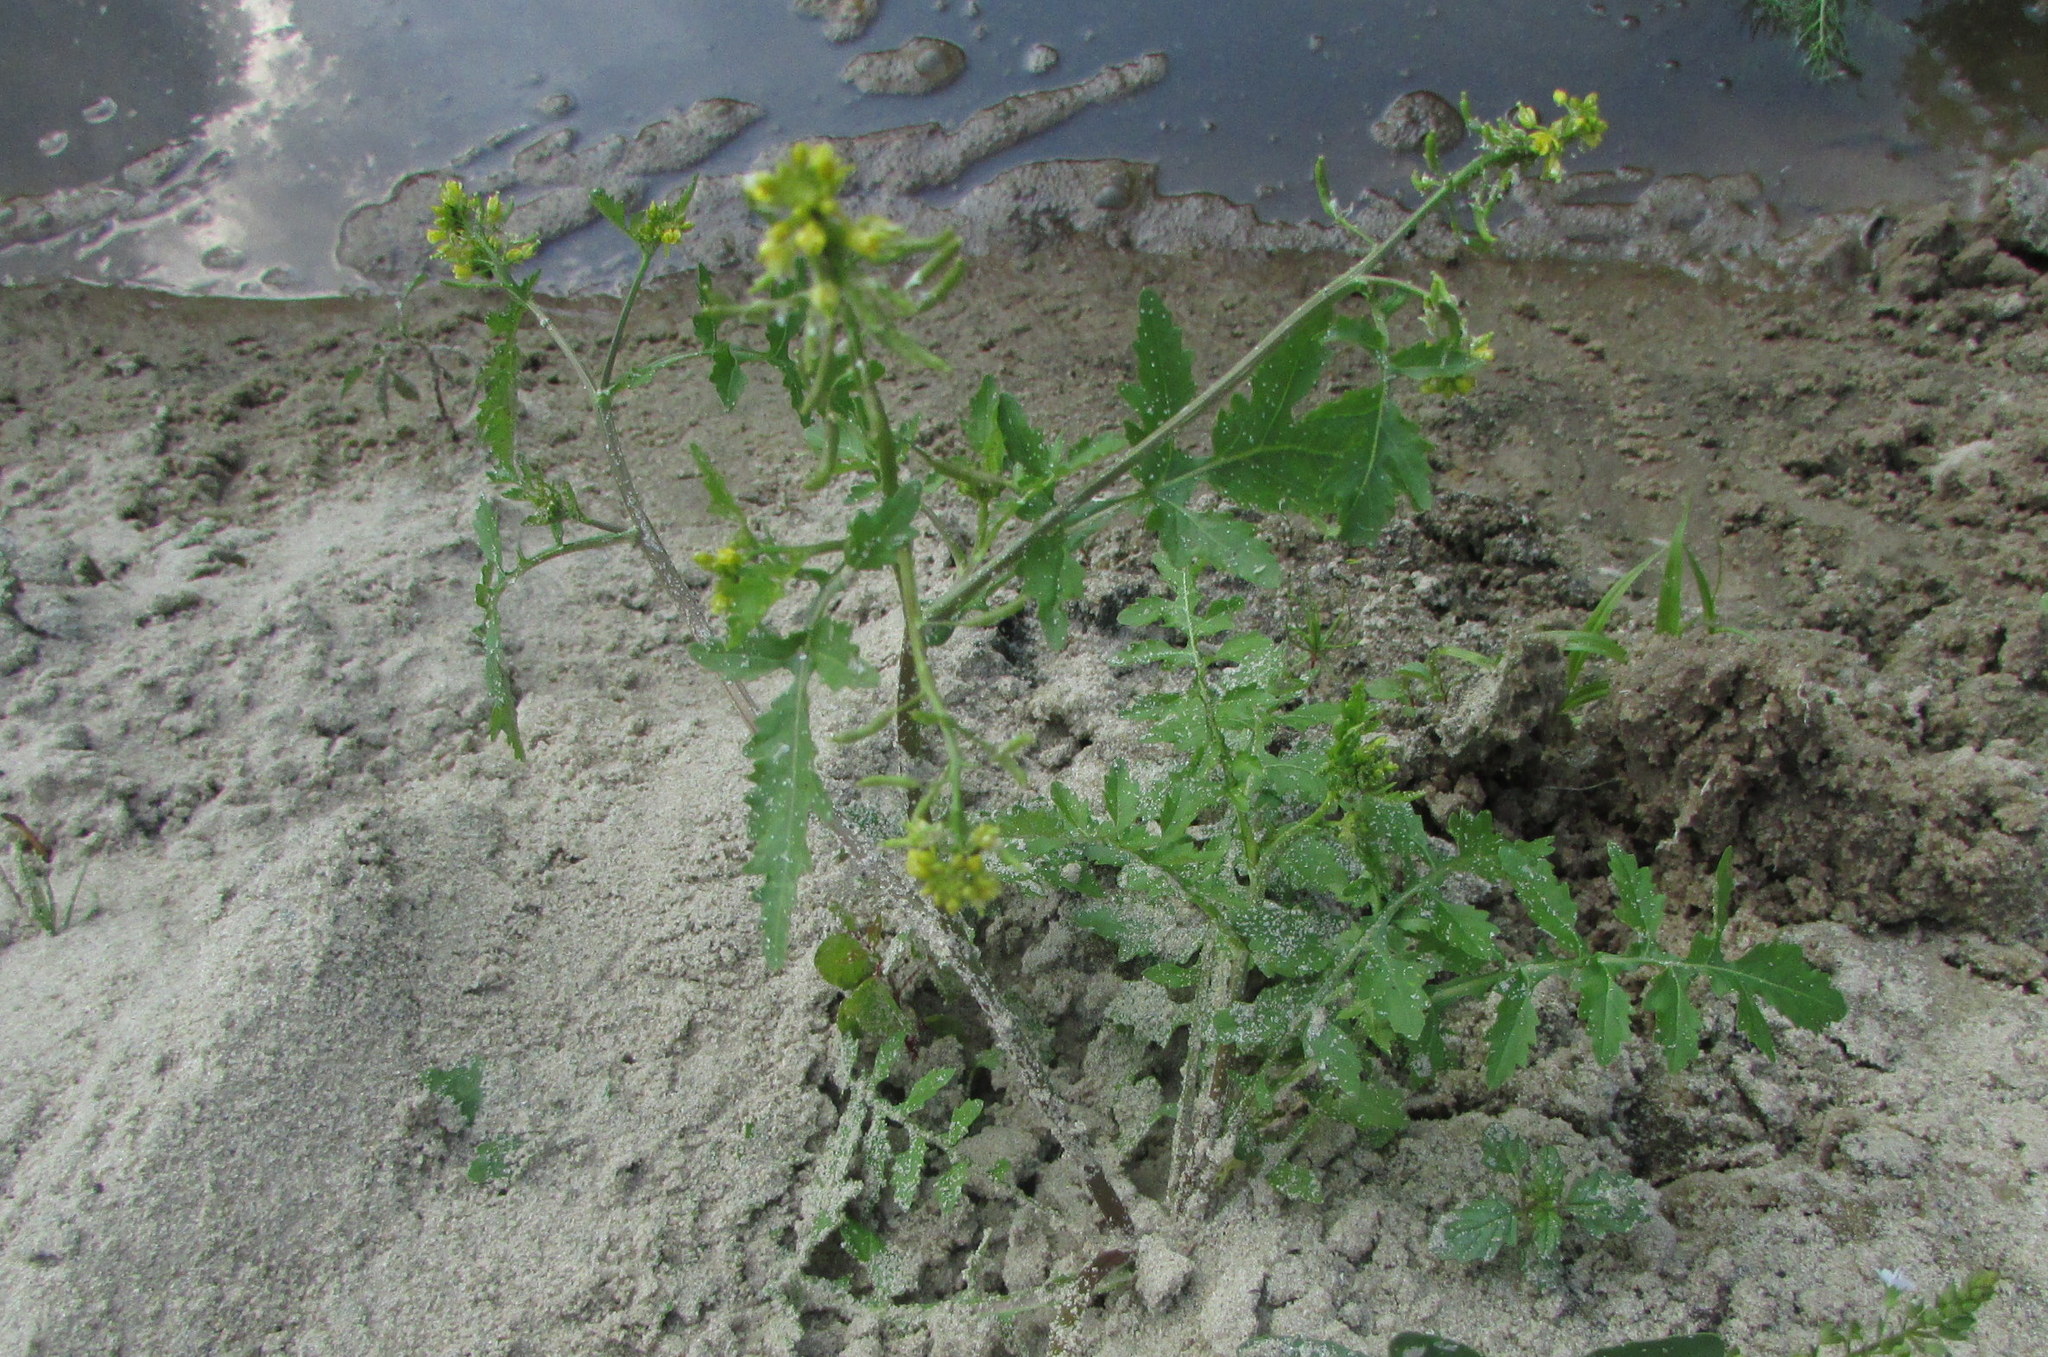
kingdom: Plantae
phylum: Tracheophyta
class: Magnoliopsida
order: Brassicales
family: Brassicaceae
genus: Rorippa
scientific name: Rorippa palustris
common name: Marsh yellow-cress
